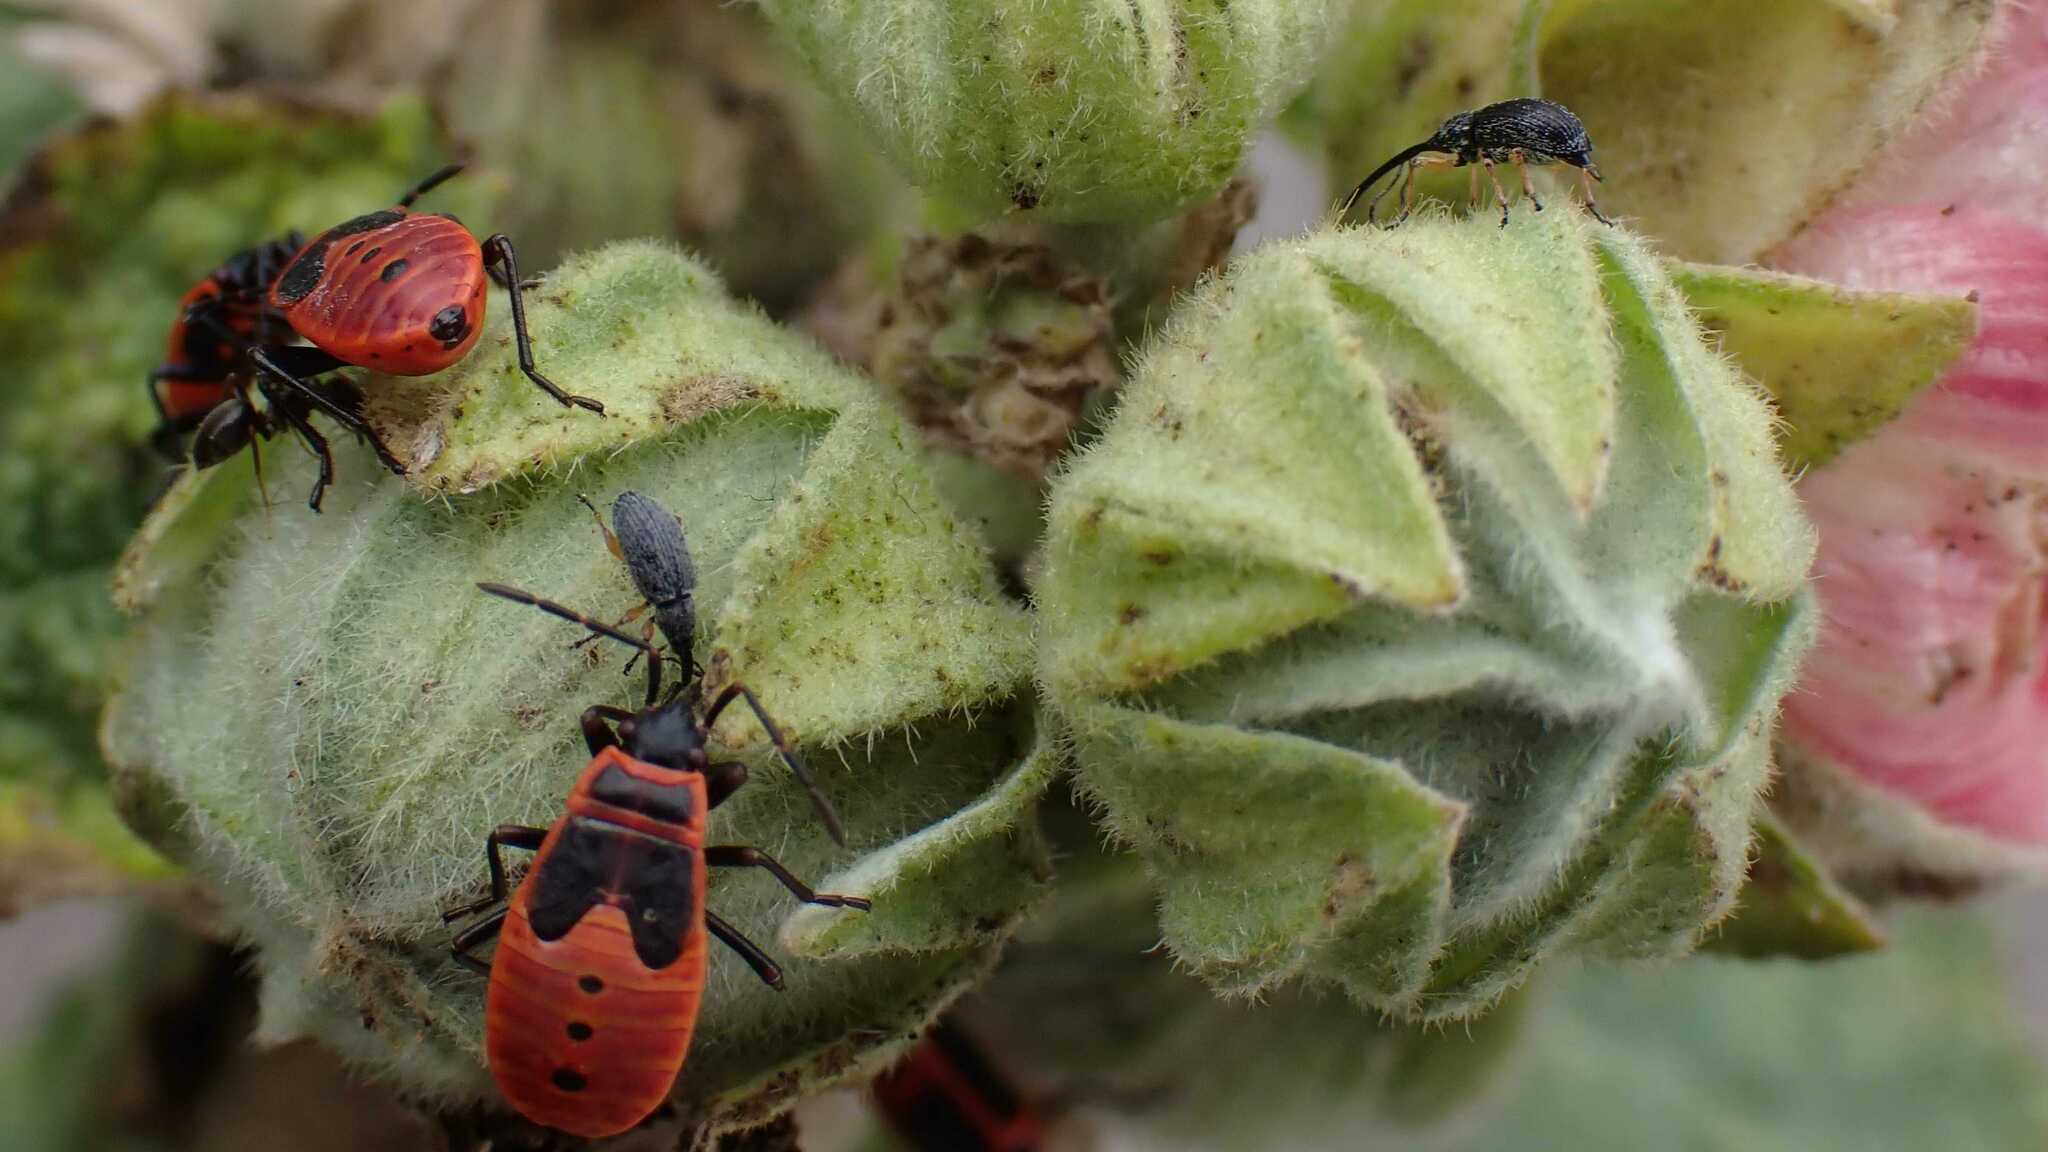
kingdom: Animalia
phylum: Arthropoda
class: Insecta
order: Coleoptera
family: Brentidae
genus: Rhopalapion
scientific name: Rhopalapion longirostre
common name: Hollyhock weevil
